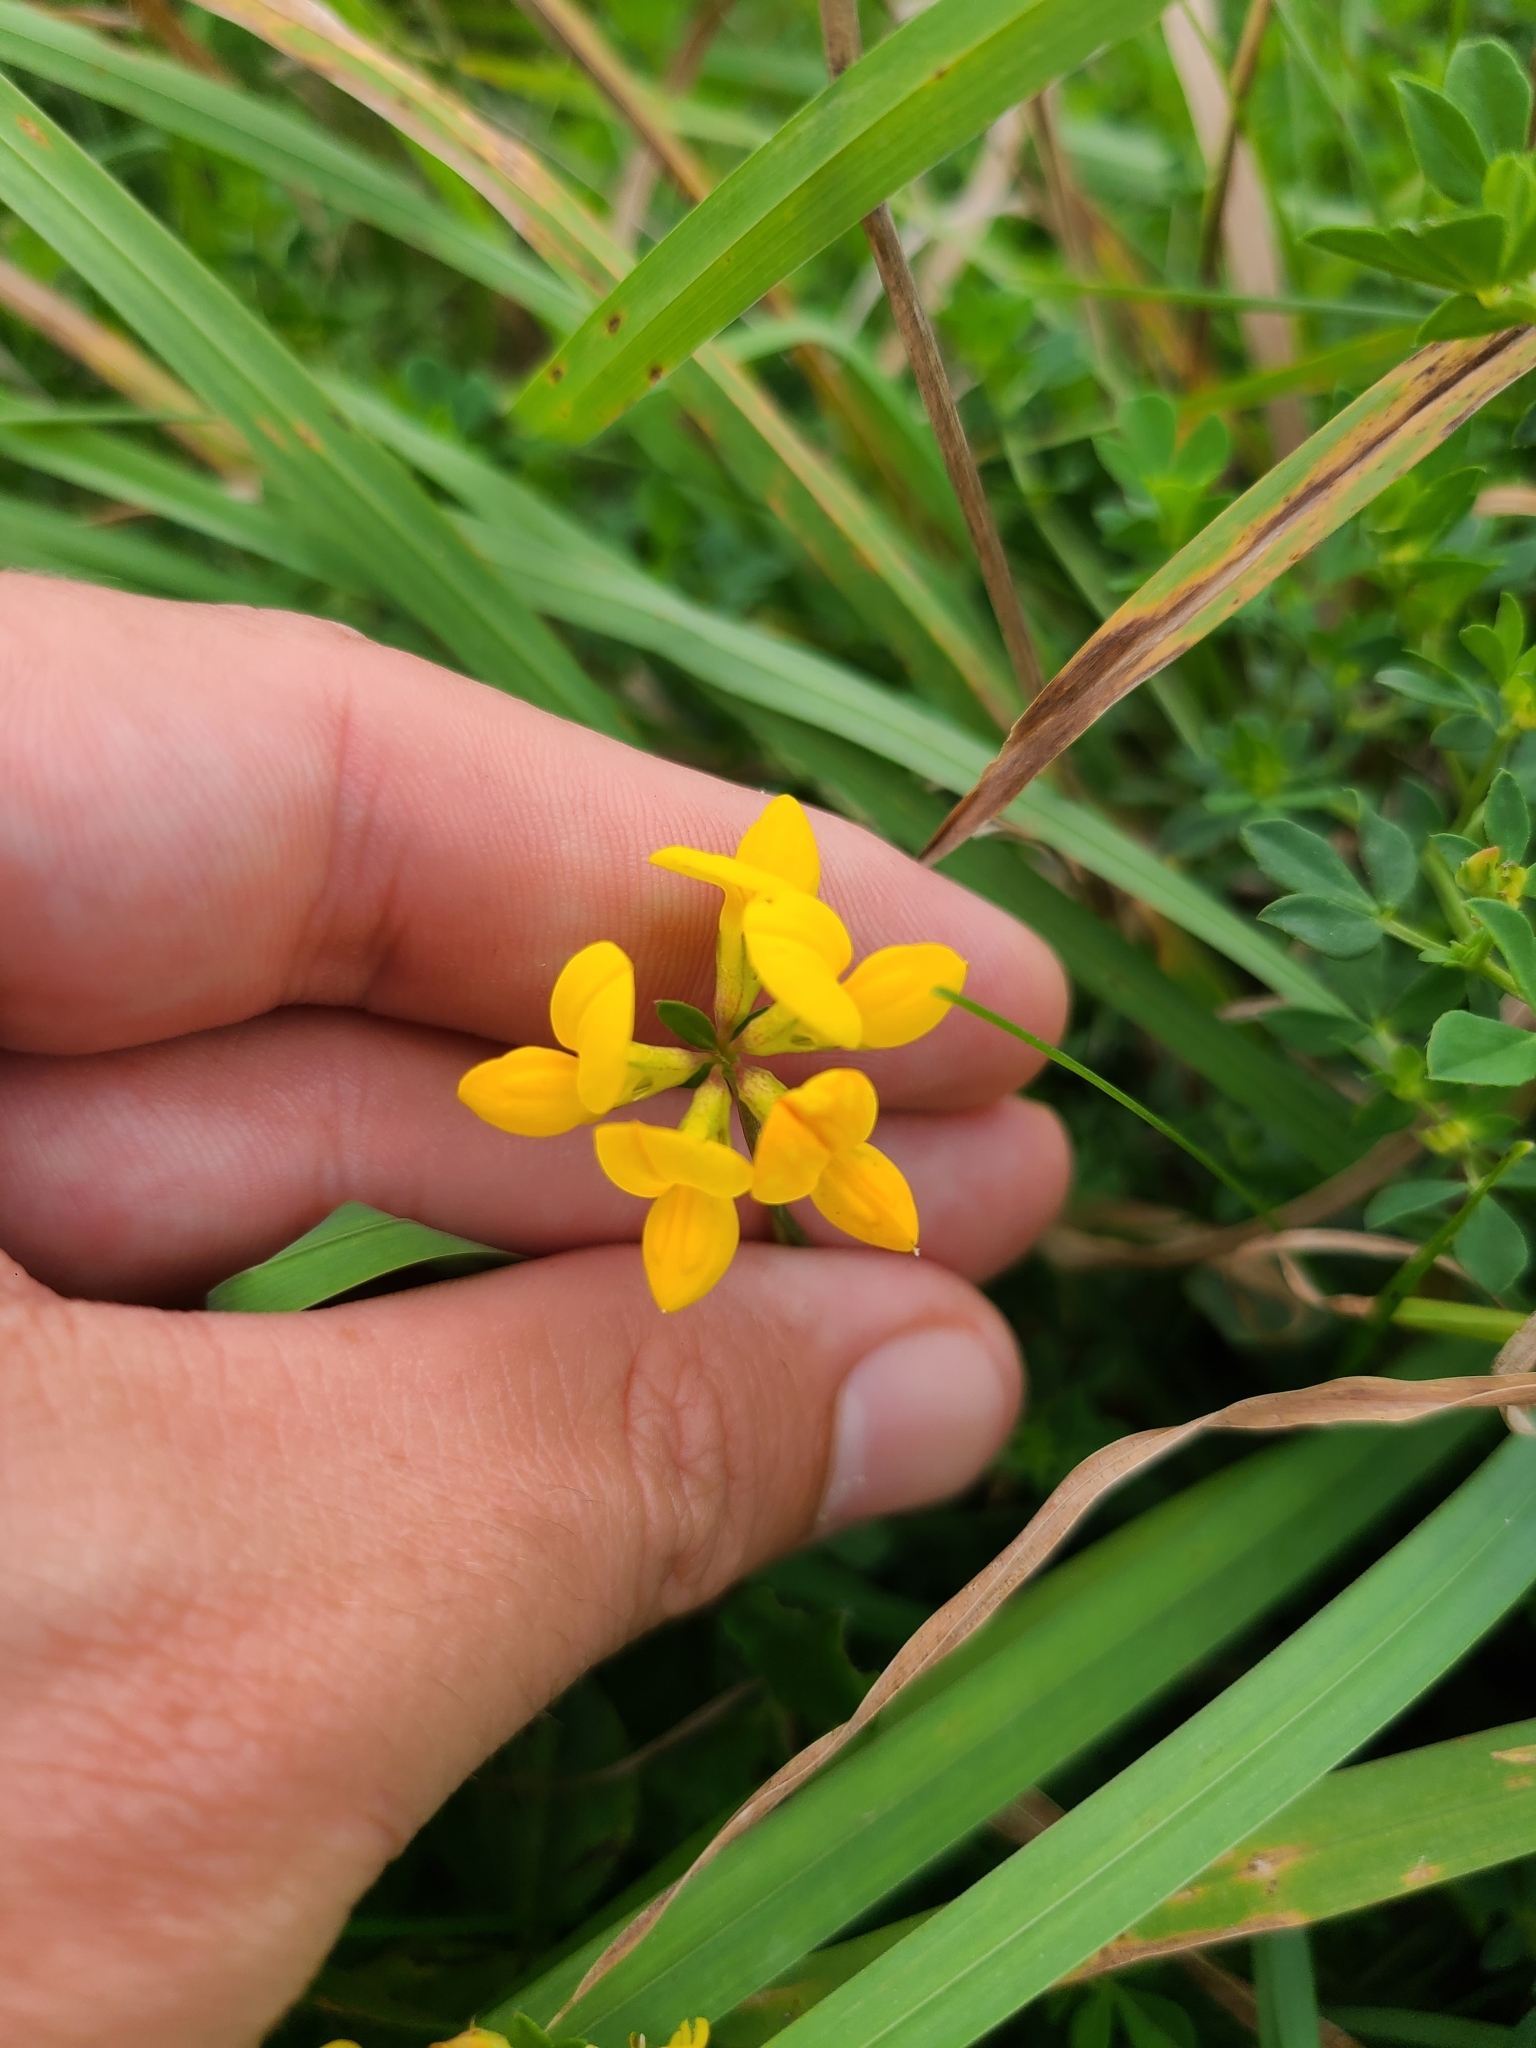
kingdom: Plantae
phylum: Tracheophyta
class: Magnoliopsida
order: Fabales
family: Fabaceae
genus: Lotus
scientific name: Lotus corniculatus
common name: Common bird's-foot-trefoil
